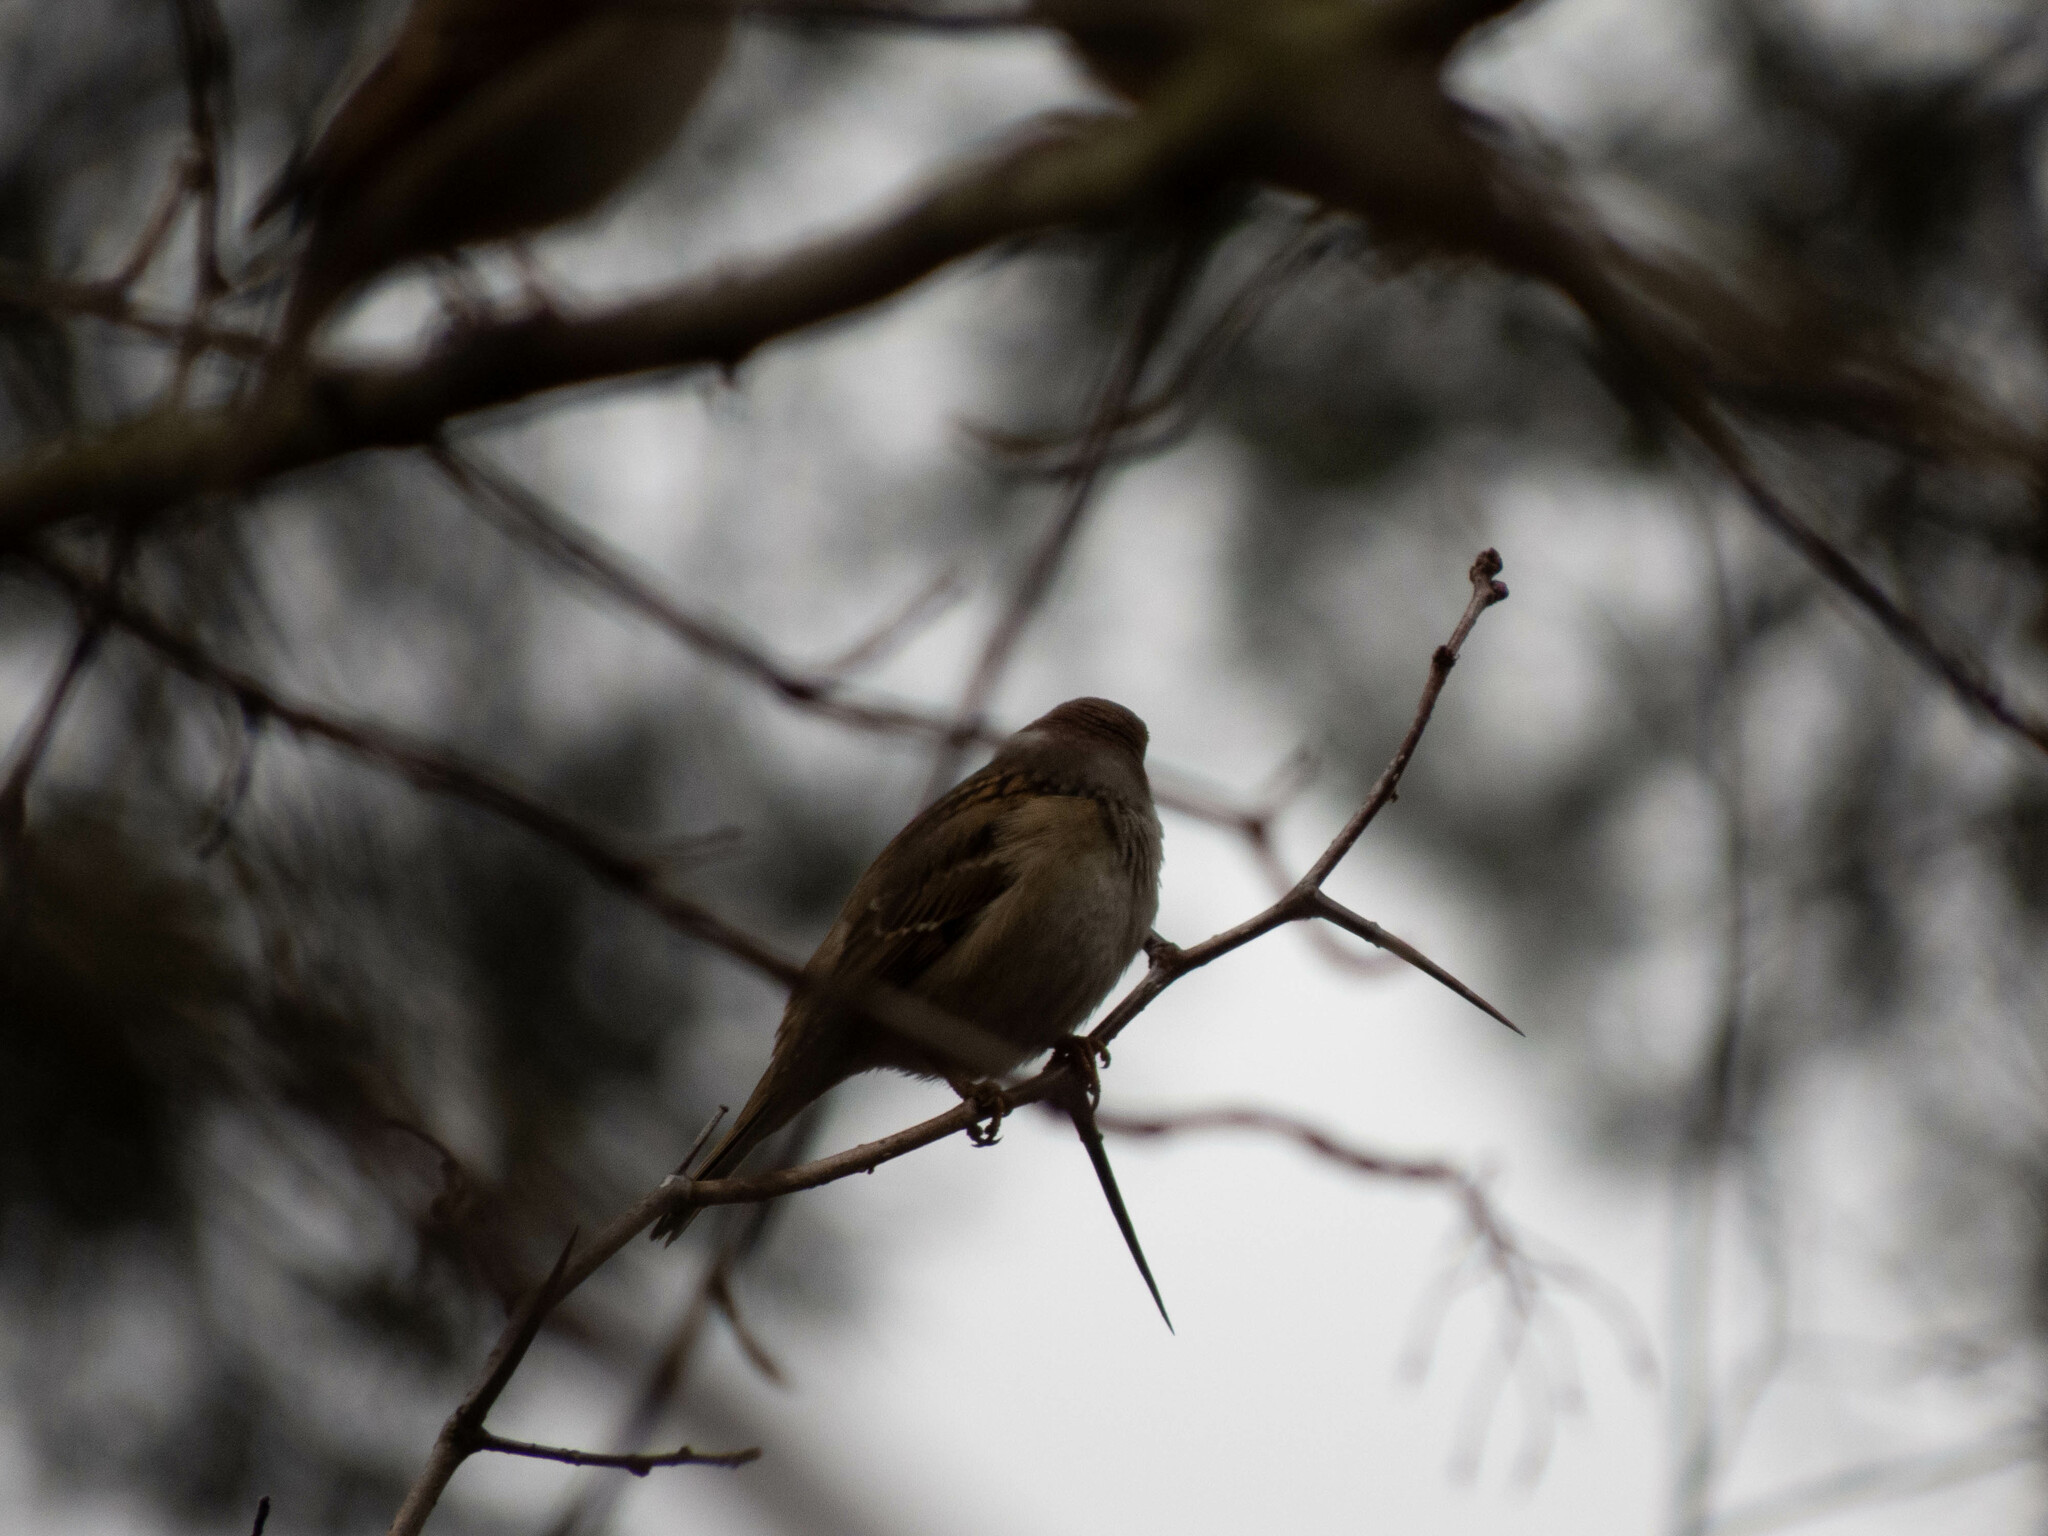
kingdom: Animalia
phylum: Chordata
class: Aves
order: Passeriformes
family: Passeridae
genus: Passer
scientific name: Passer montanus
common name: Eurasian tree sparrow
